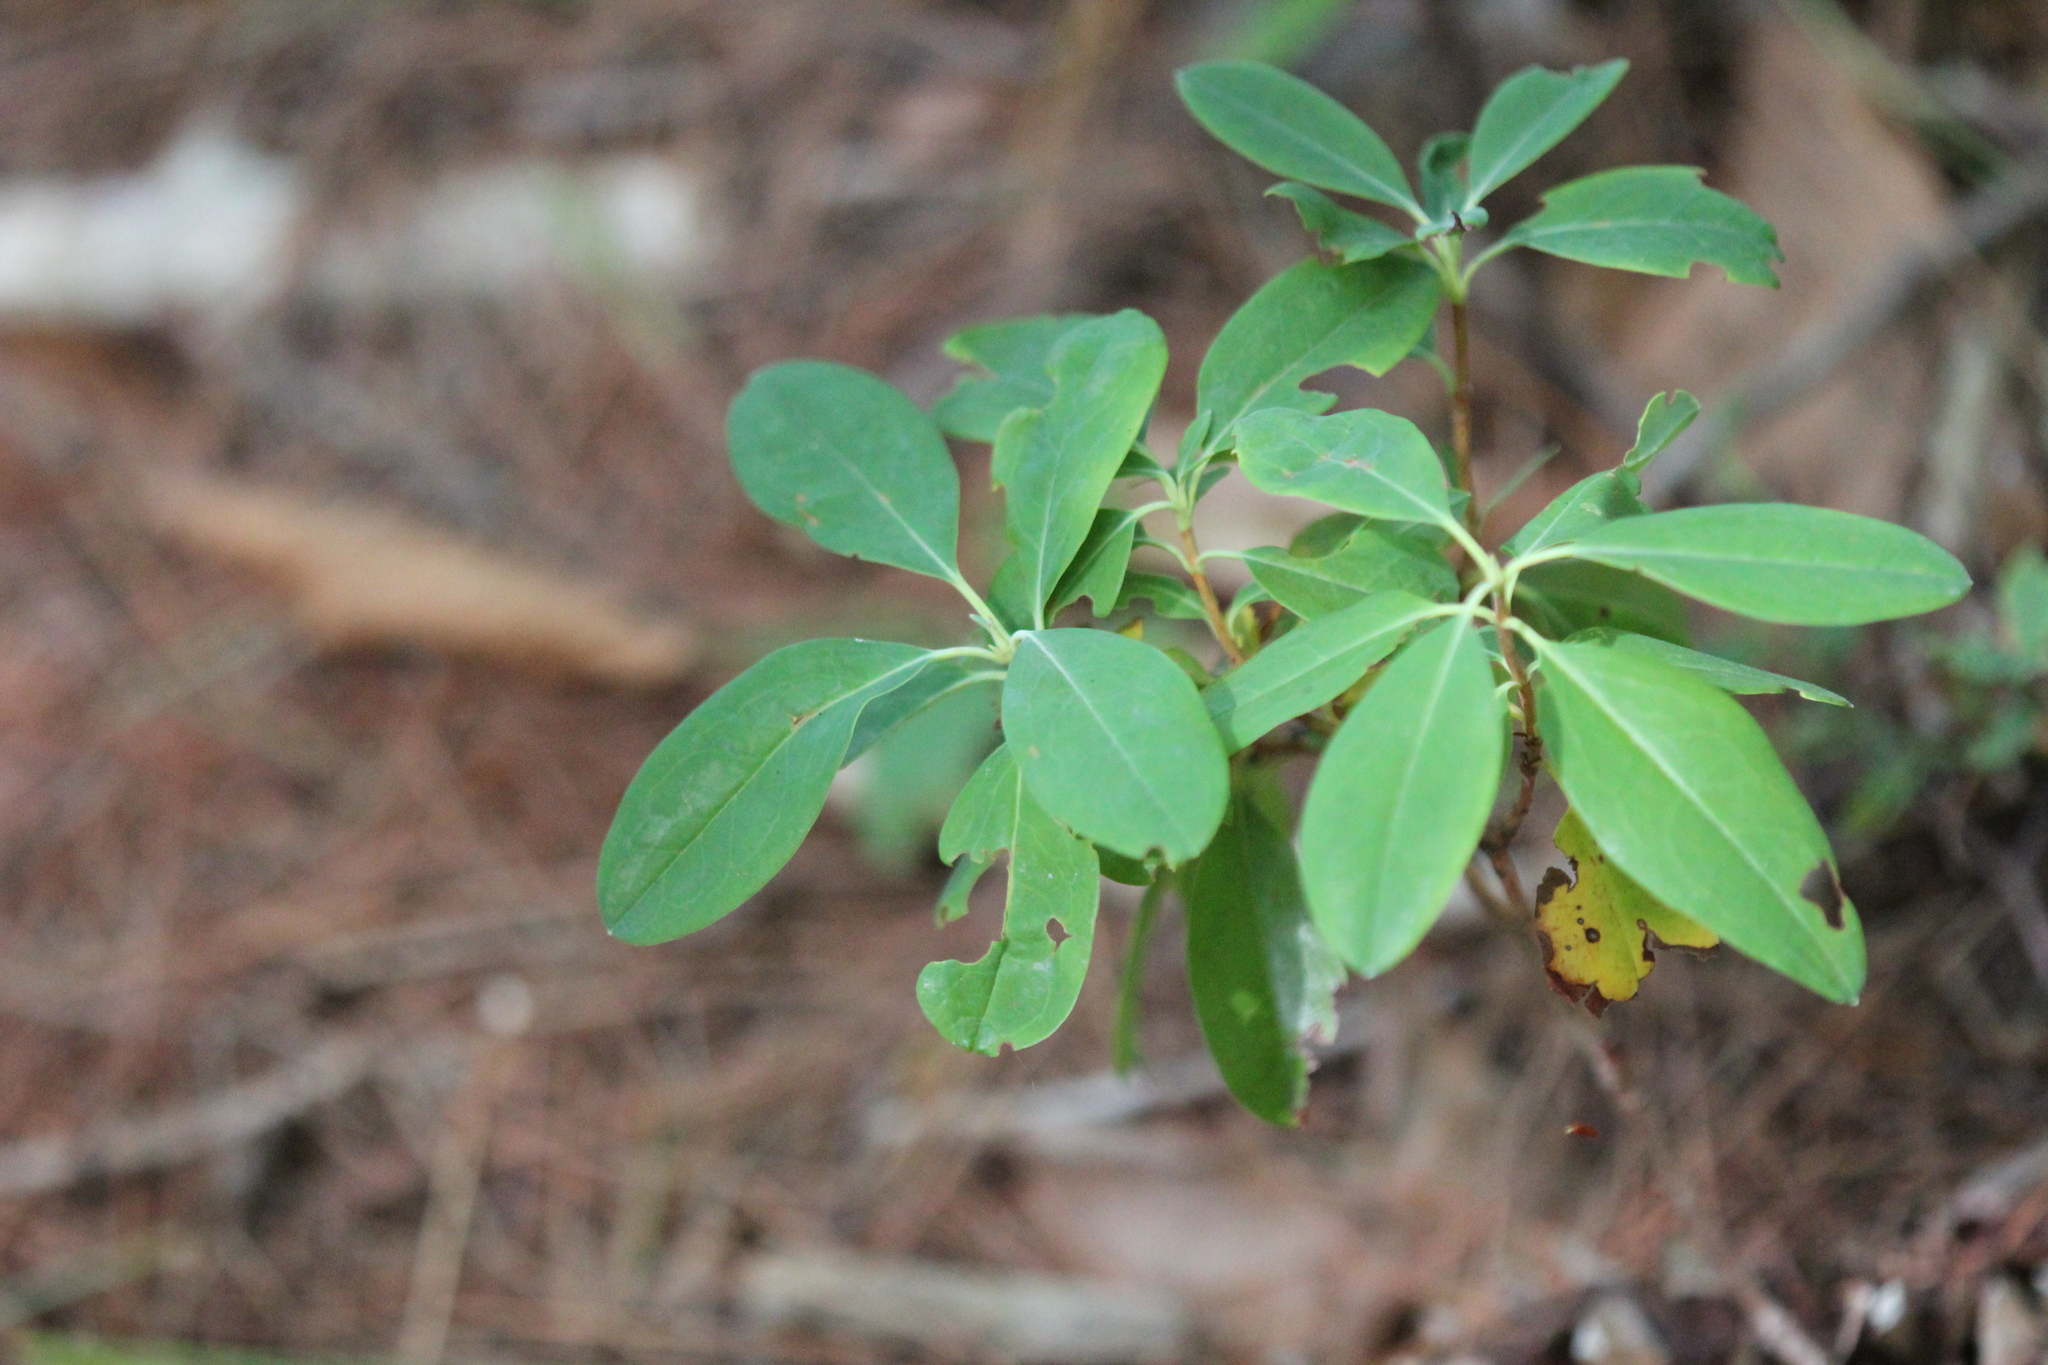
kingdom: Plantae
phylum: Tracheophyta
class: Magnoliopsida
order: Ericales
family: Ericaceae
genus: Kalmia
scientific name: Kalmia angustifolia
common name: Sheep-laurel
